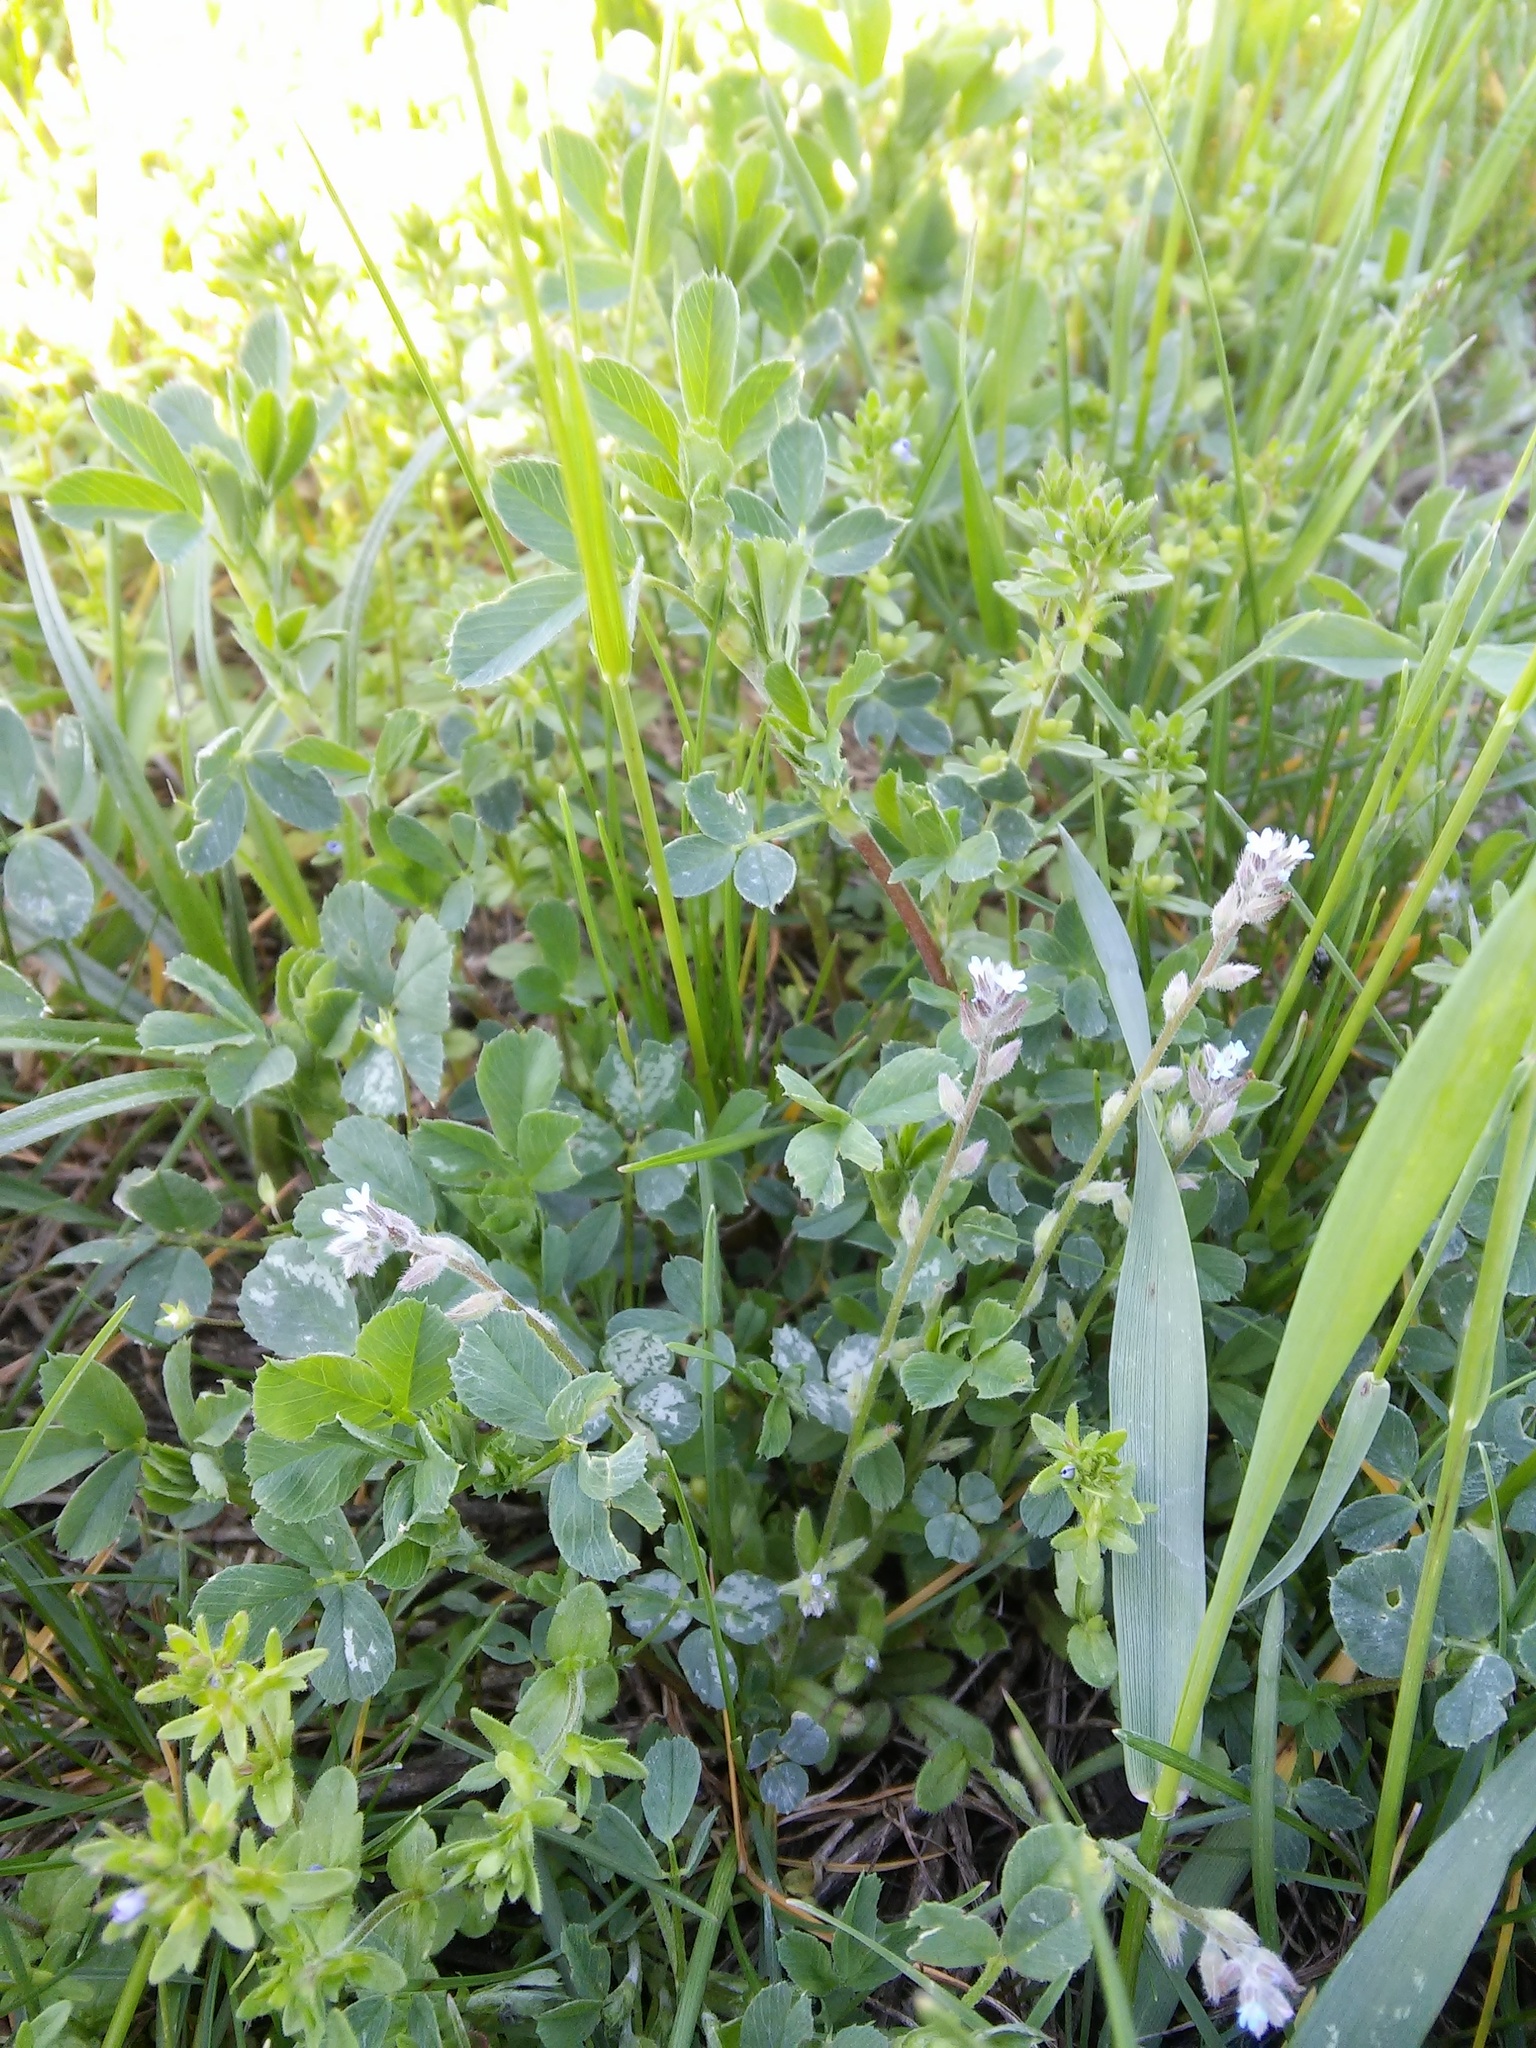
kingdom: Plantae
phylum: Tracheophyta
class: Magnoliopsida
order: Boraginales
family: Boraginaceae
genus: Myosotis
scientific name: Myosotis stricta
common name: Strict forget-me-not
